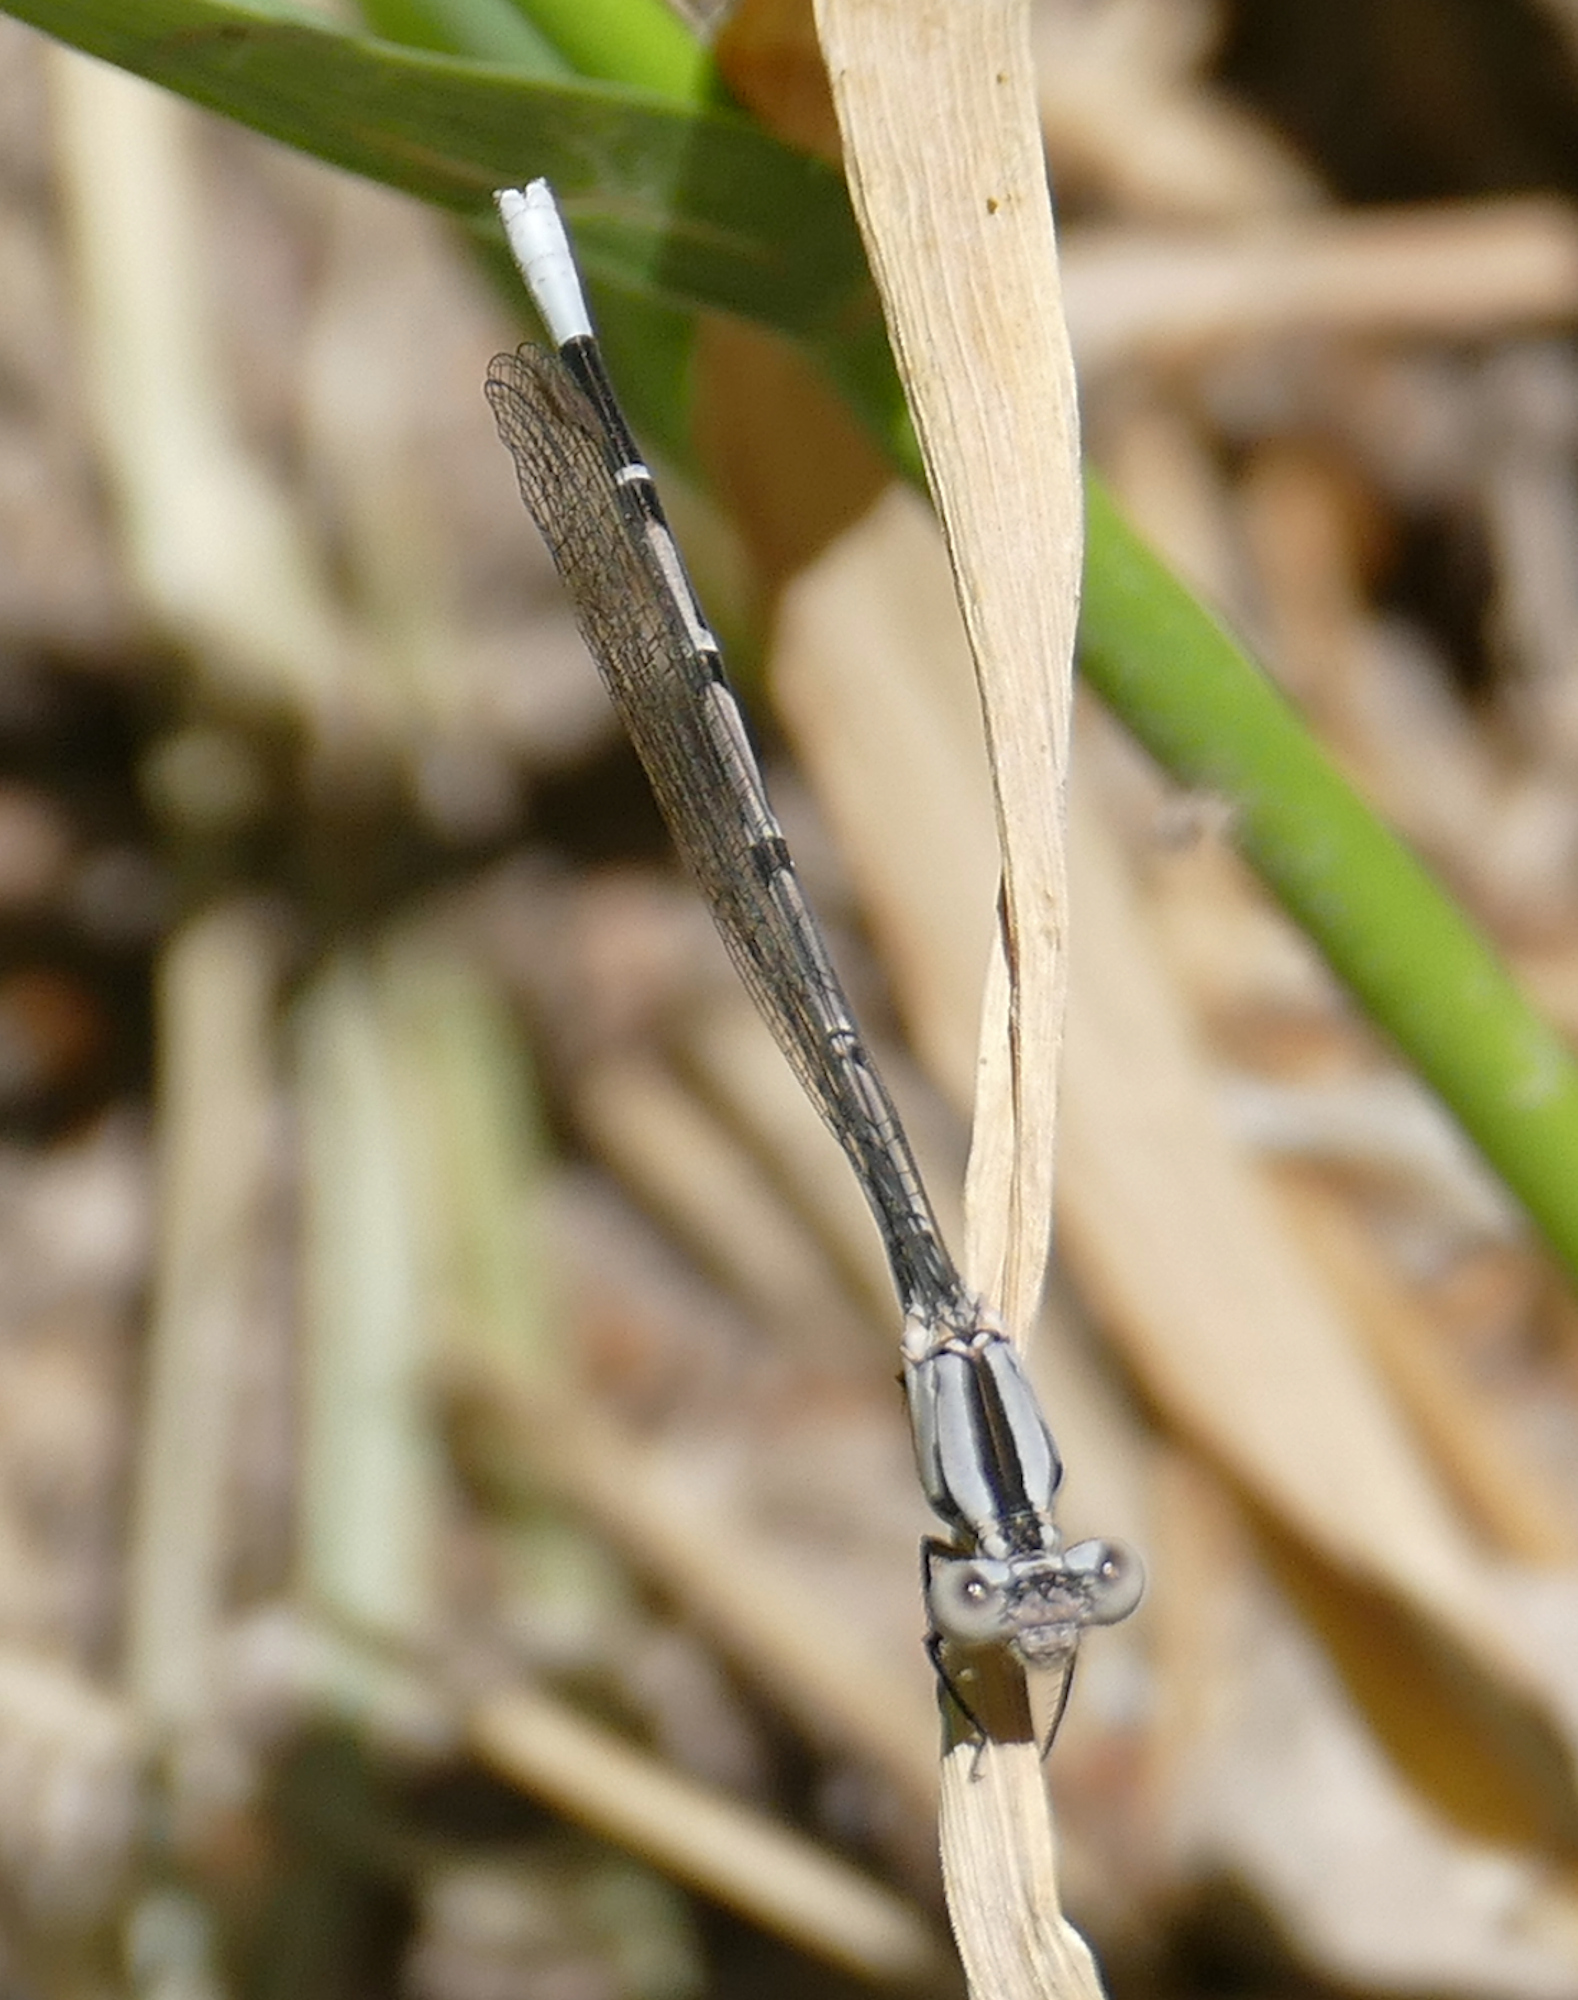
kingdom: Animalia
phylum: Arthropoda
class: Insecta
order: Odonata
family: Coenagrionidae
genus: Argia
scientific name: Argia funebris
